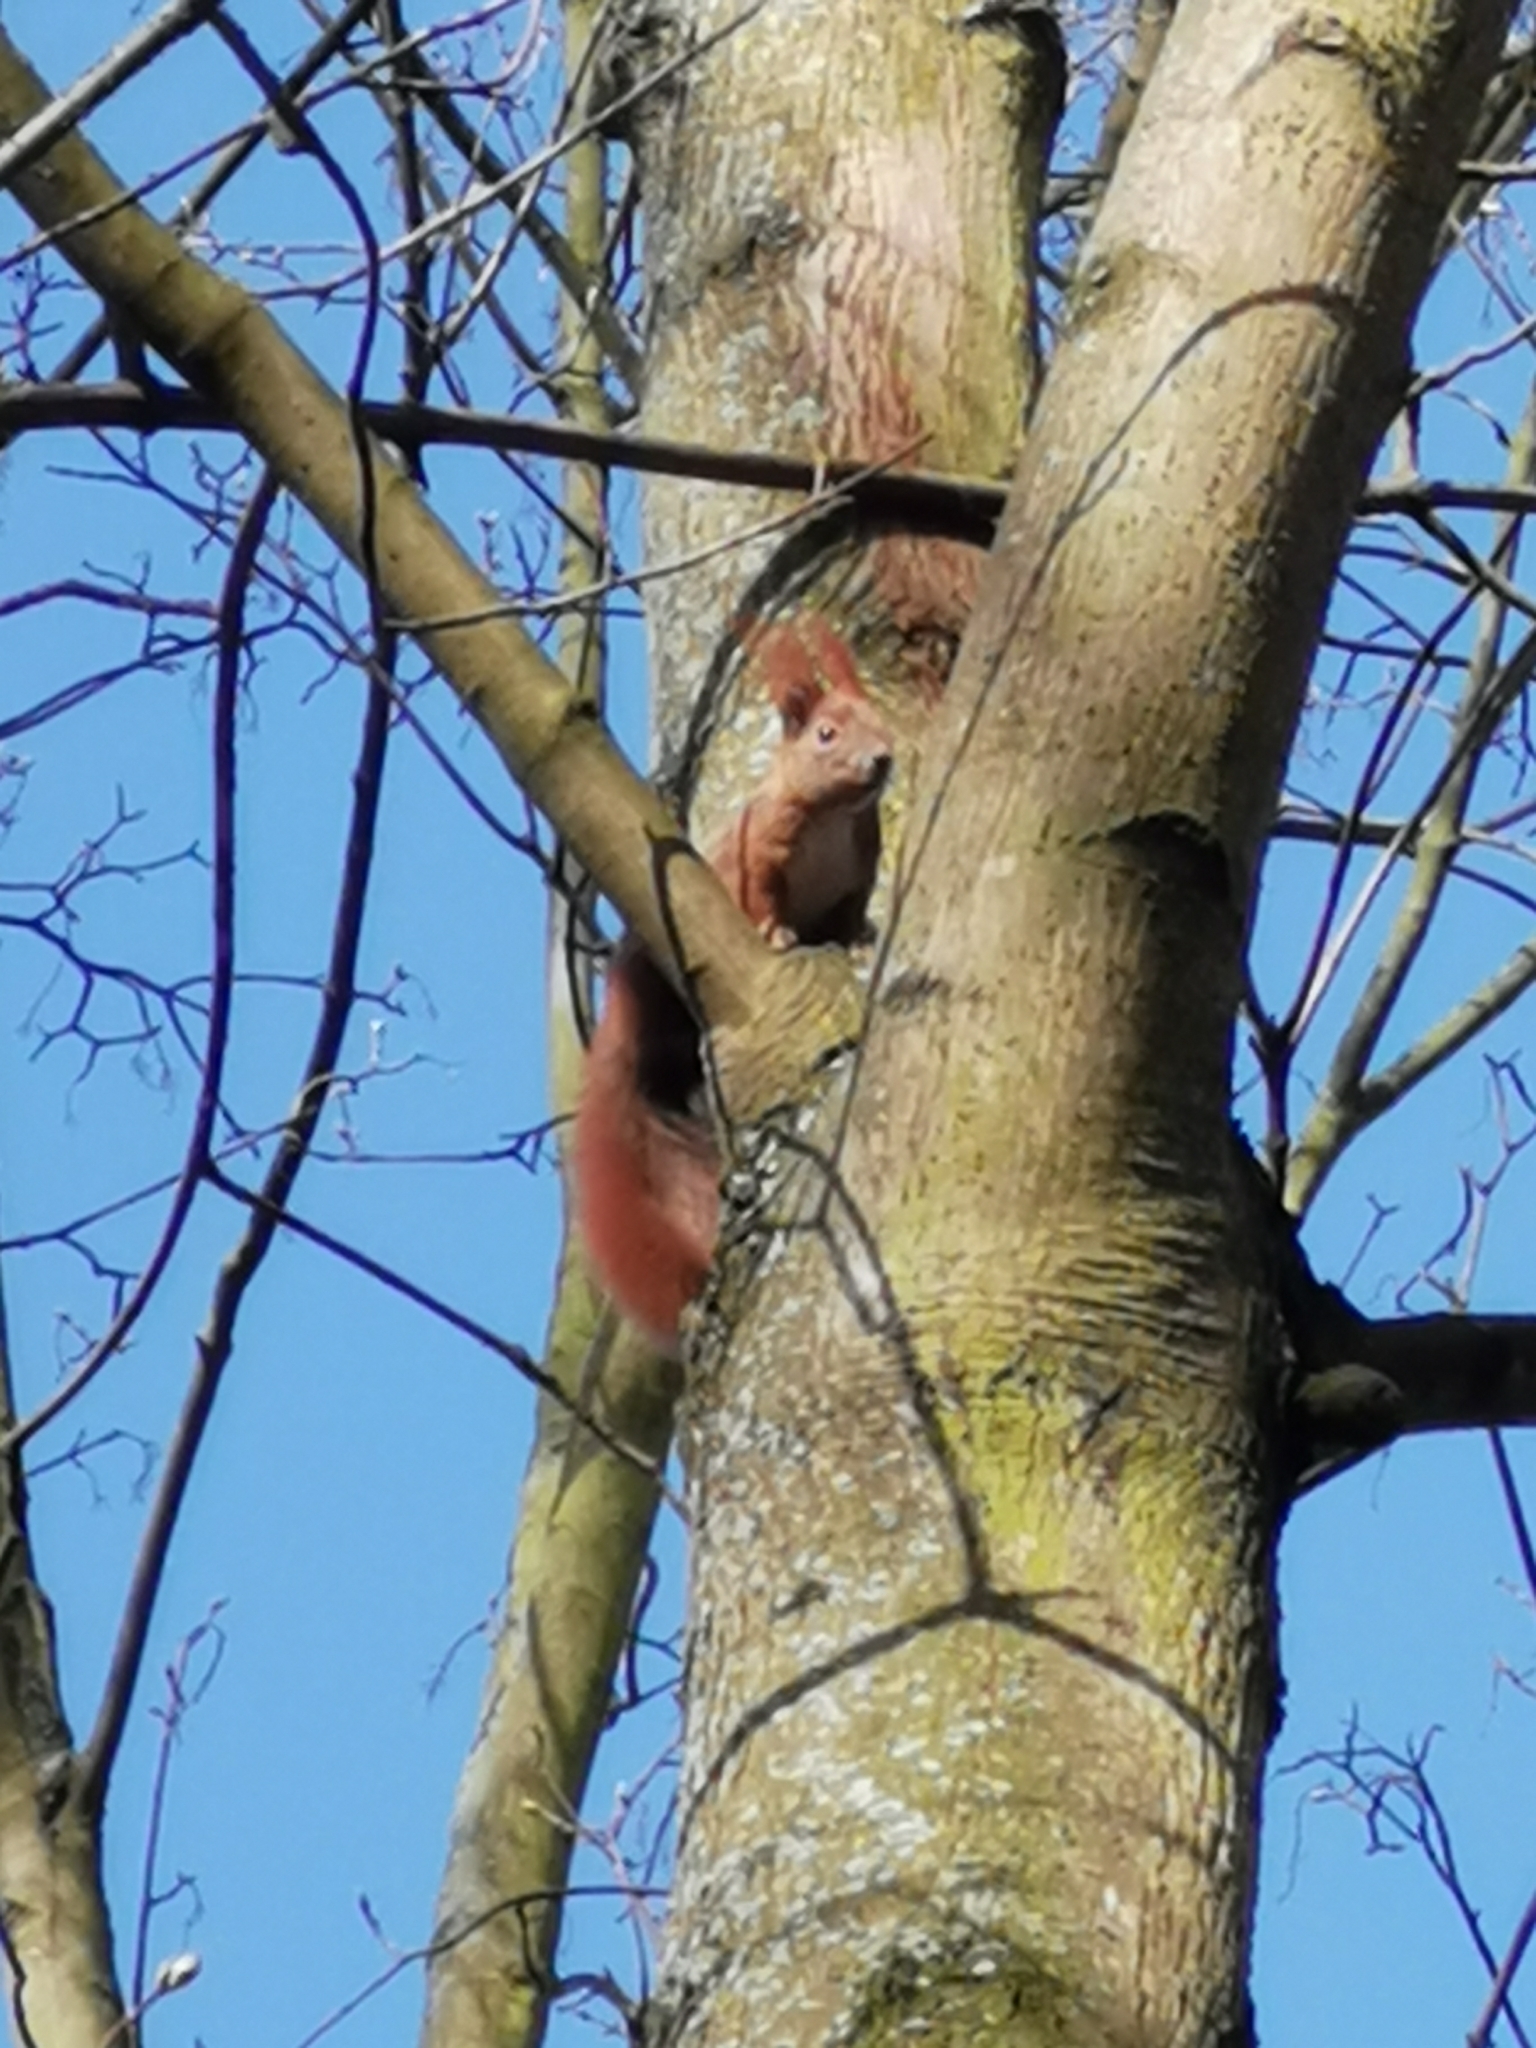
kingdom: Animalia
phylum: Chordata
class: Mammalia
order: Rodentia
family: Sciuridae
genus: Sciurus
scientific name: Sciurus vulgaris
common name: Eurasian red squirrel
